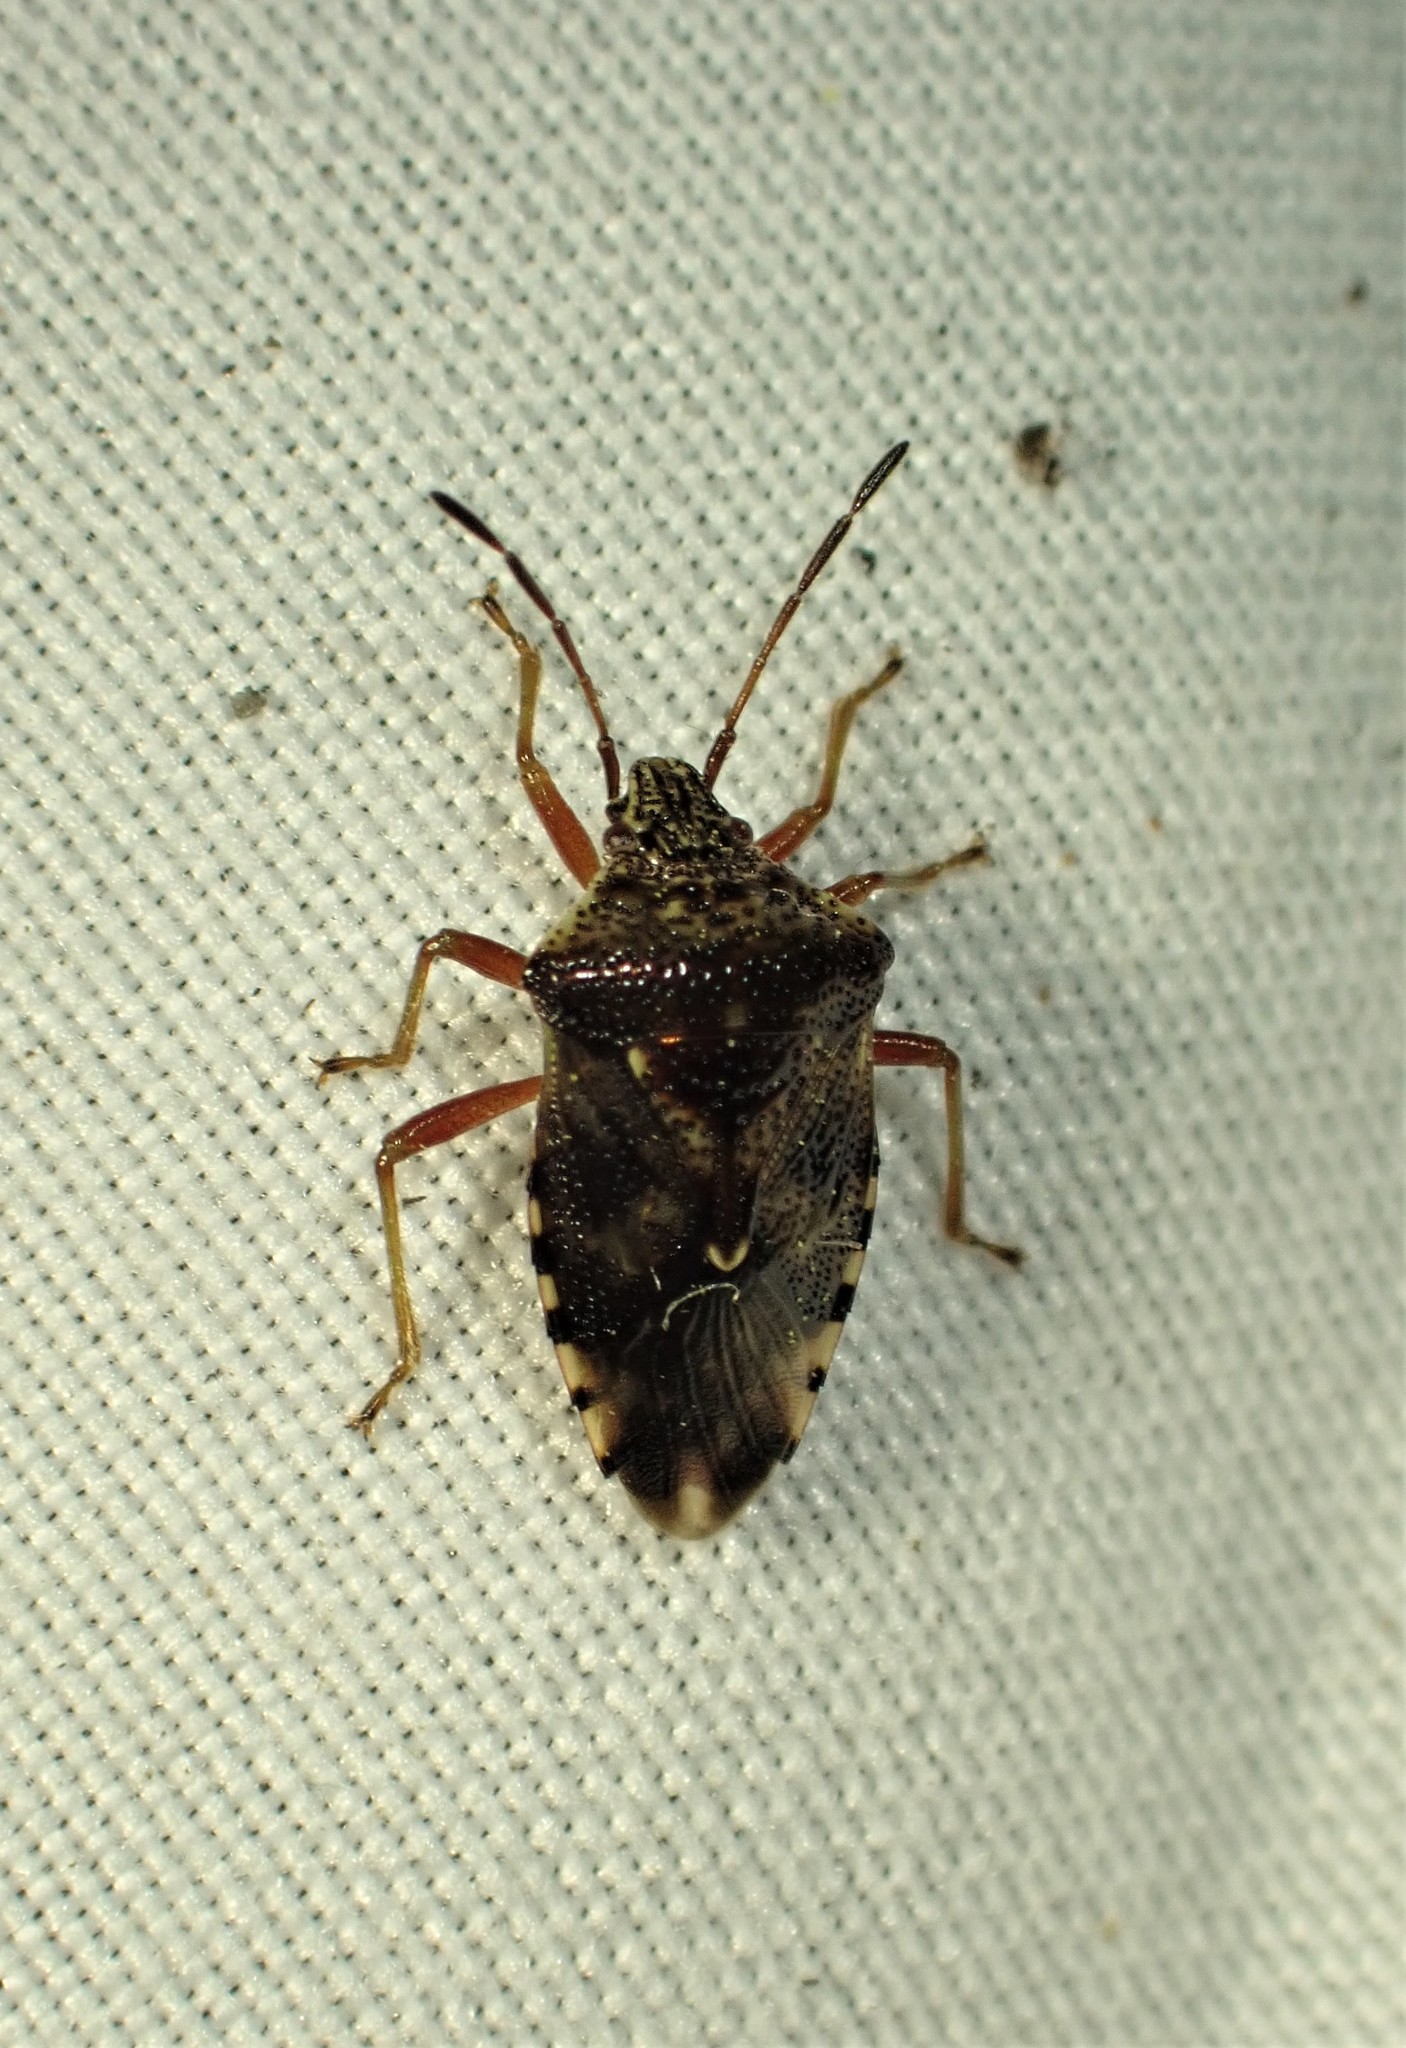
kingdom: Animalia
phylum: Arthropoda
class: Insecta
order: Hemiptera
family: Acanthosomatidae
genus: Elasmucha
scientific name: Elasmucha lateralis
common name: Shield bug
